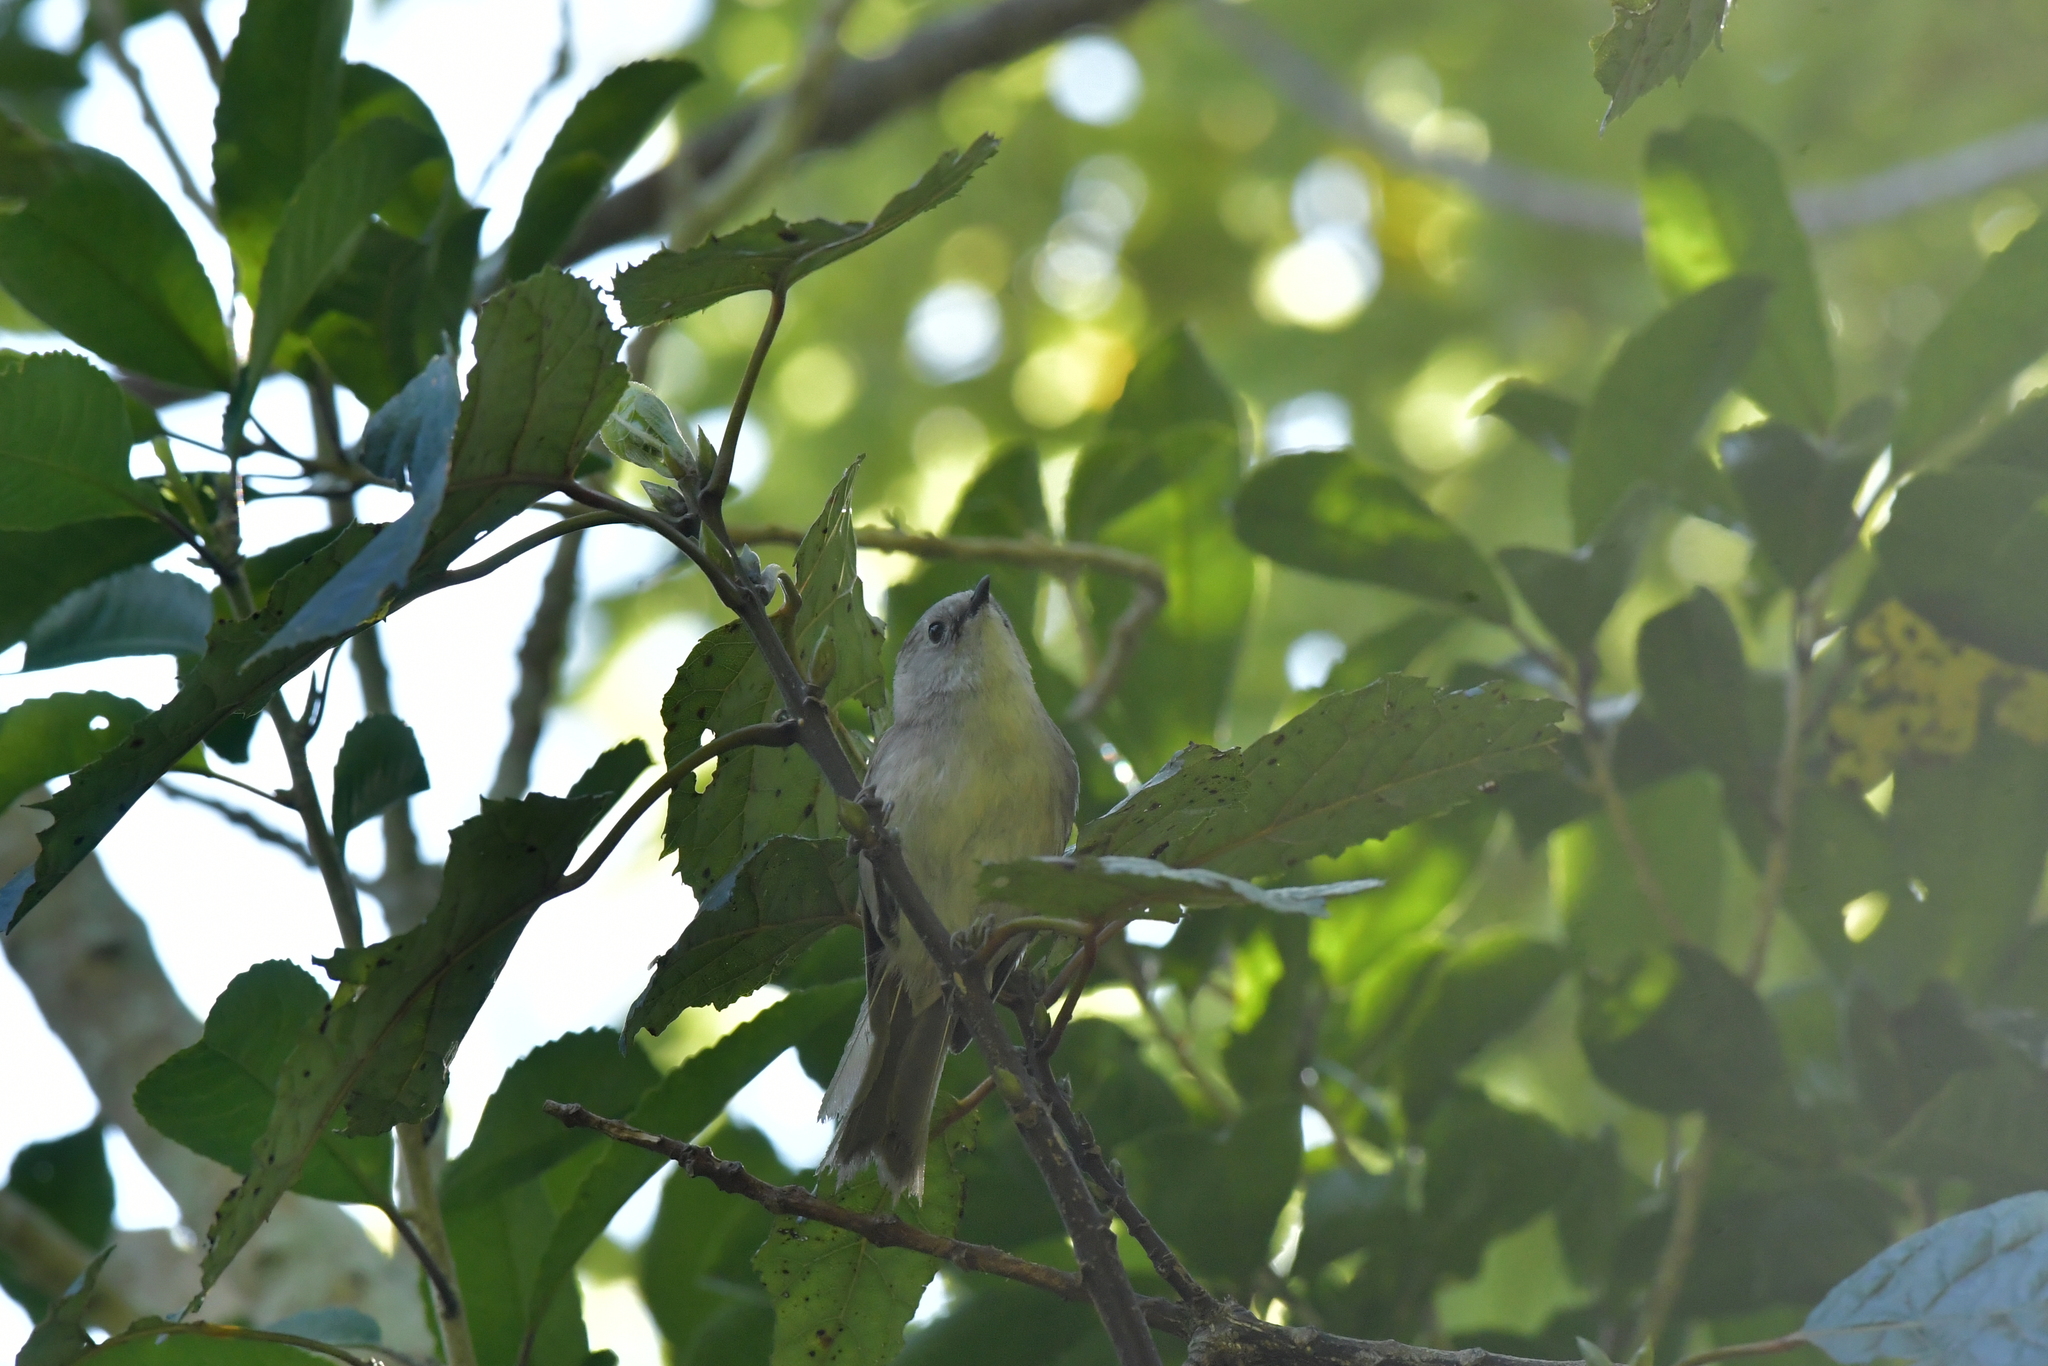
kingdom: Animalia
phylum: Chordata
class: Aves
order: Passeriformes
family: Acanthizidae
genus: Mohoua
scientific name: Mohoua albicilla
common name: Whitehead
